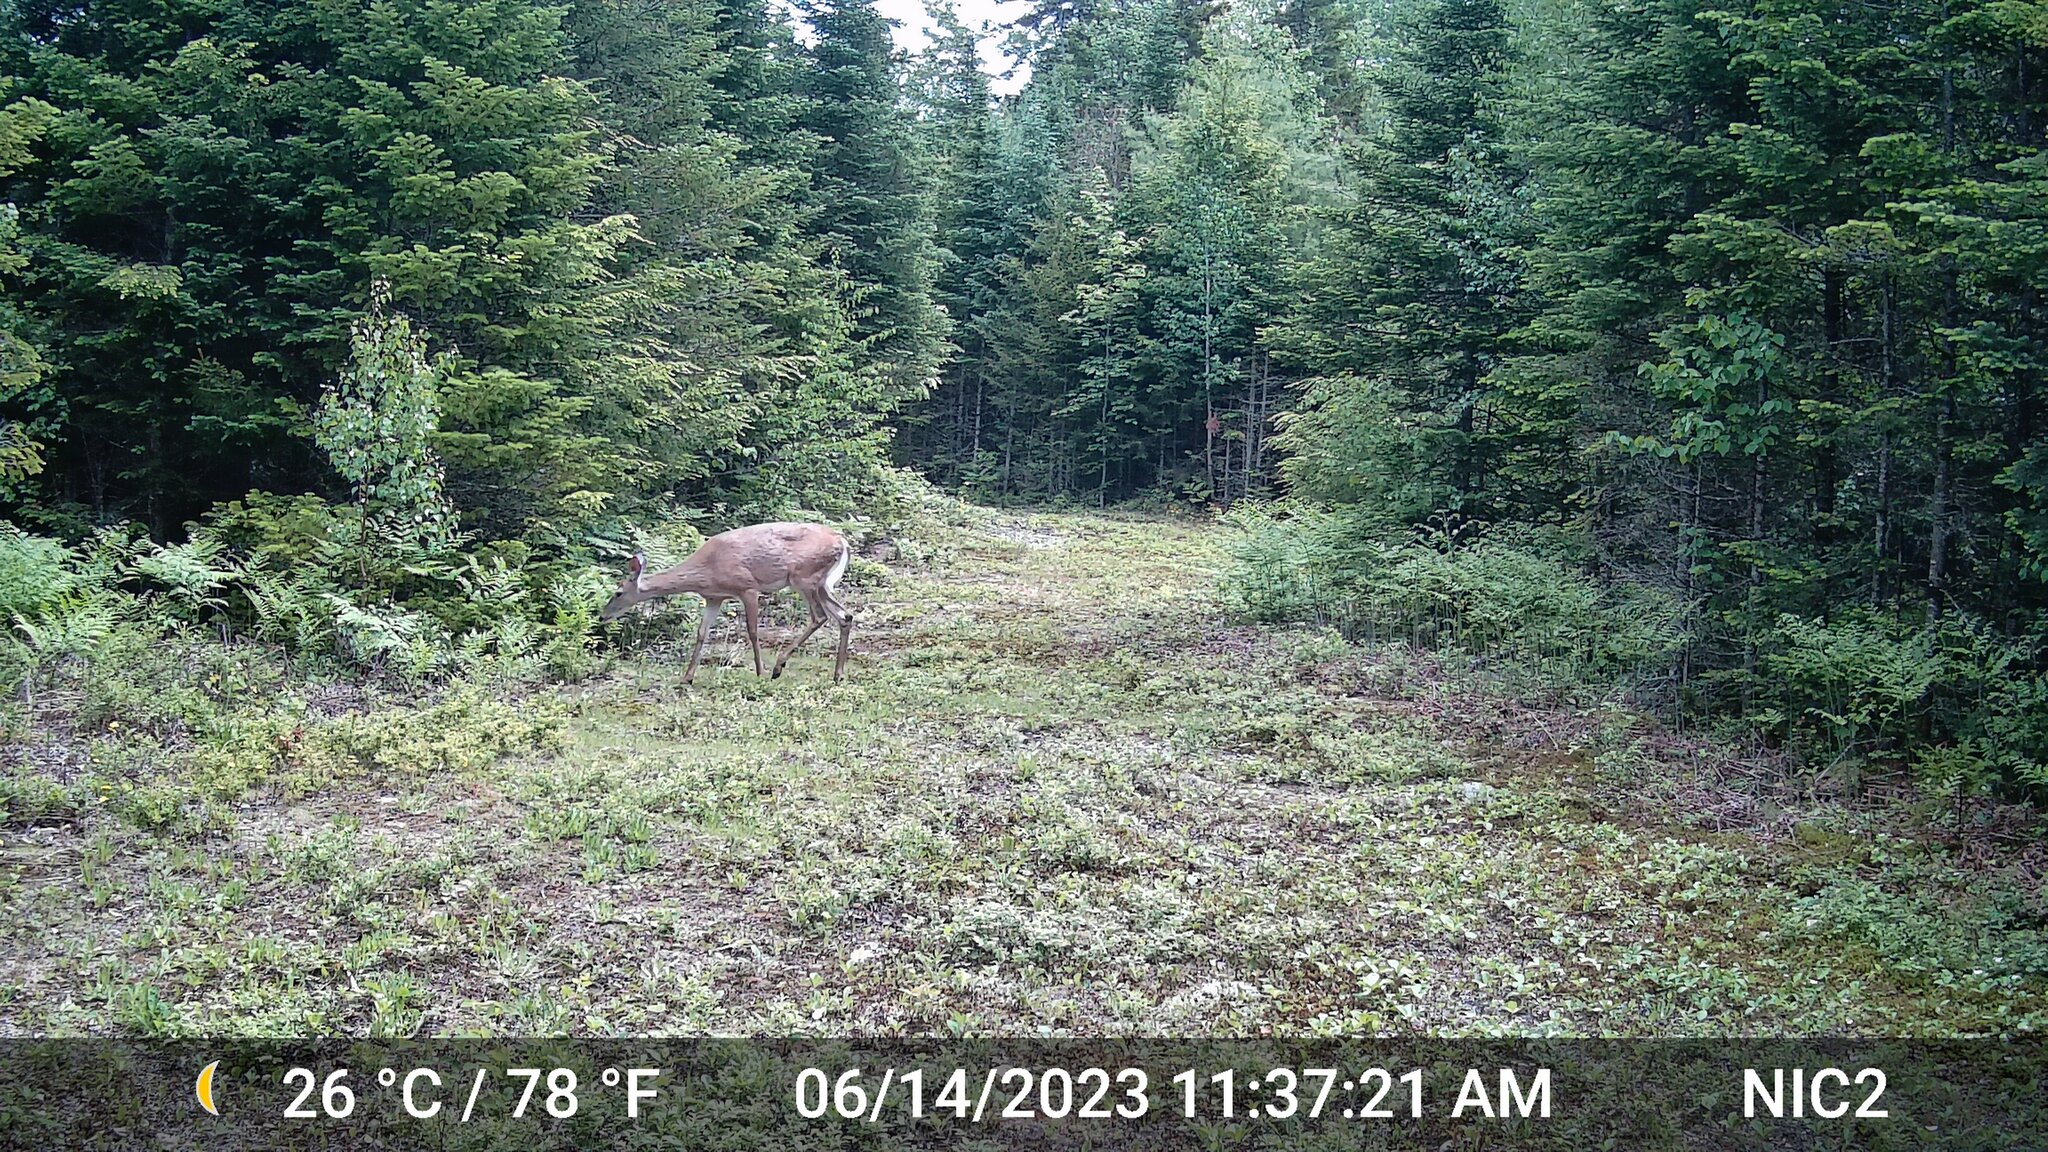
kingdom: Animalia
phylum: Chordata
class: Mammalia
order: Artiodactyla
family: Cervidae
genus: Odocoileus
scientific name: Odocoileus virginianus
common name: White-tailed deer
